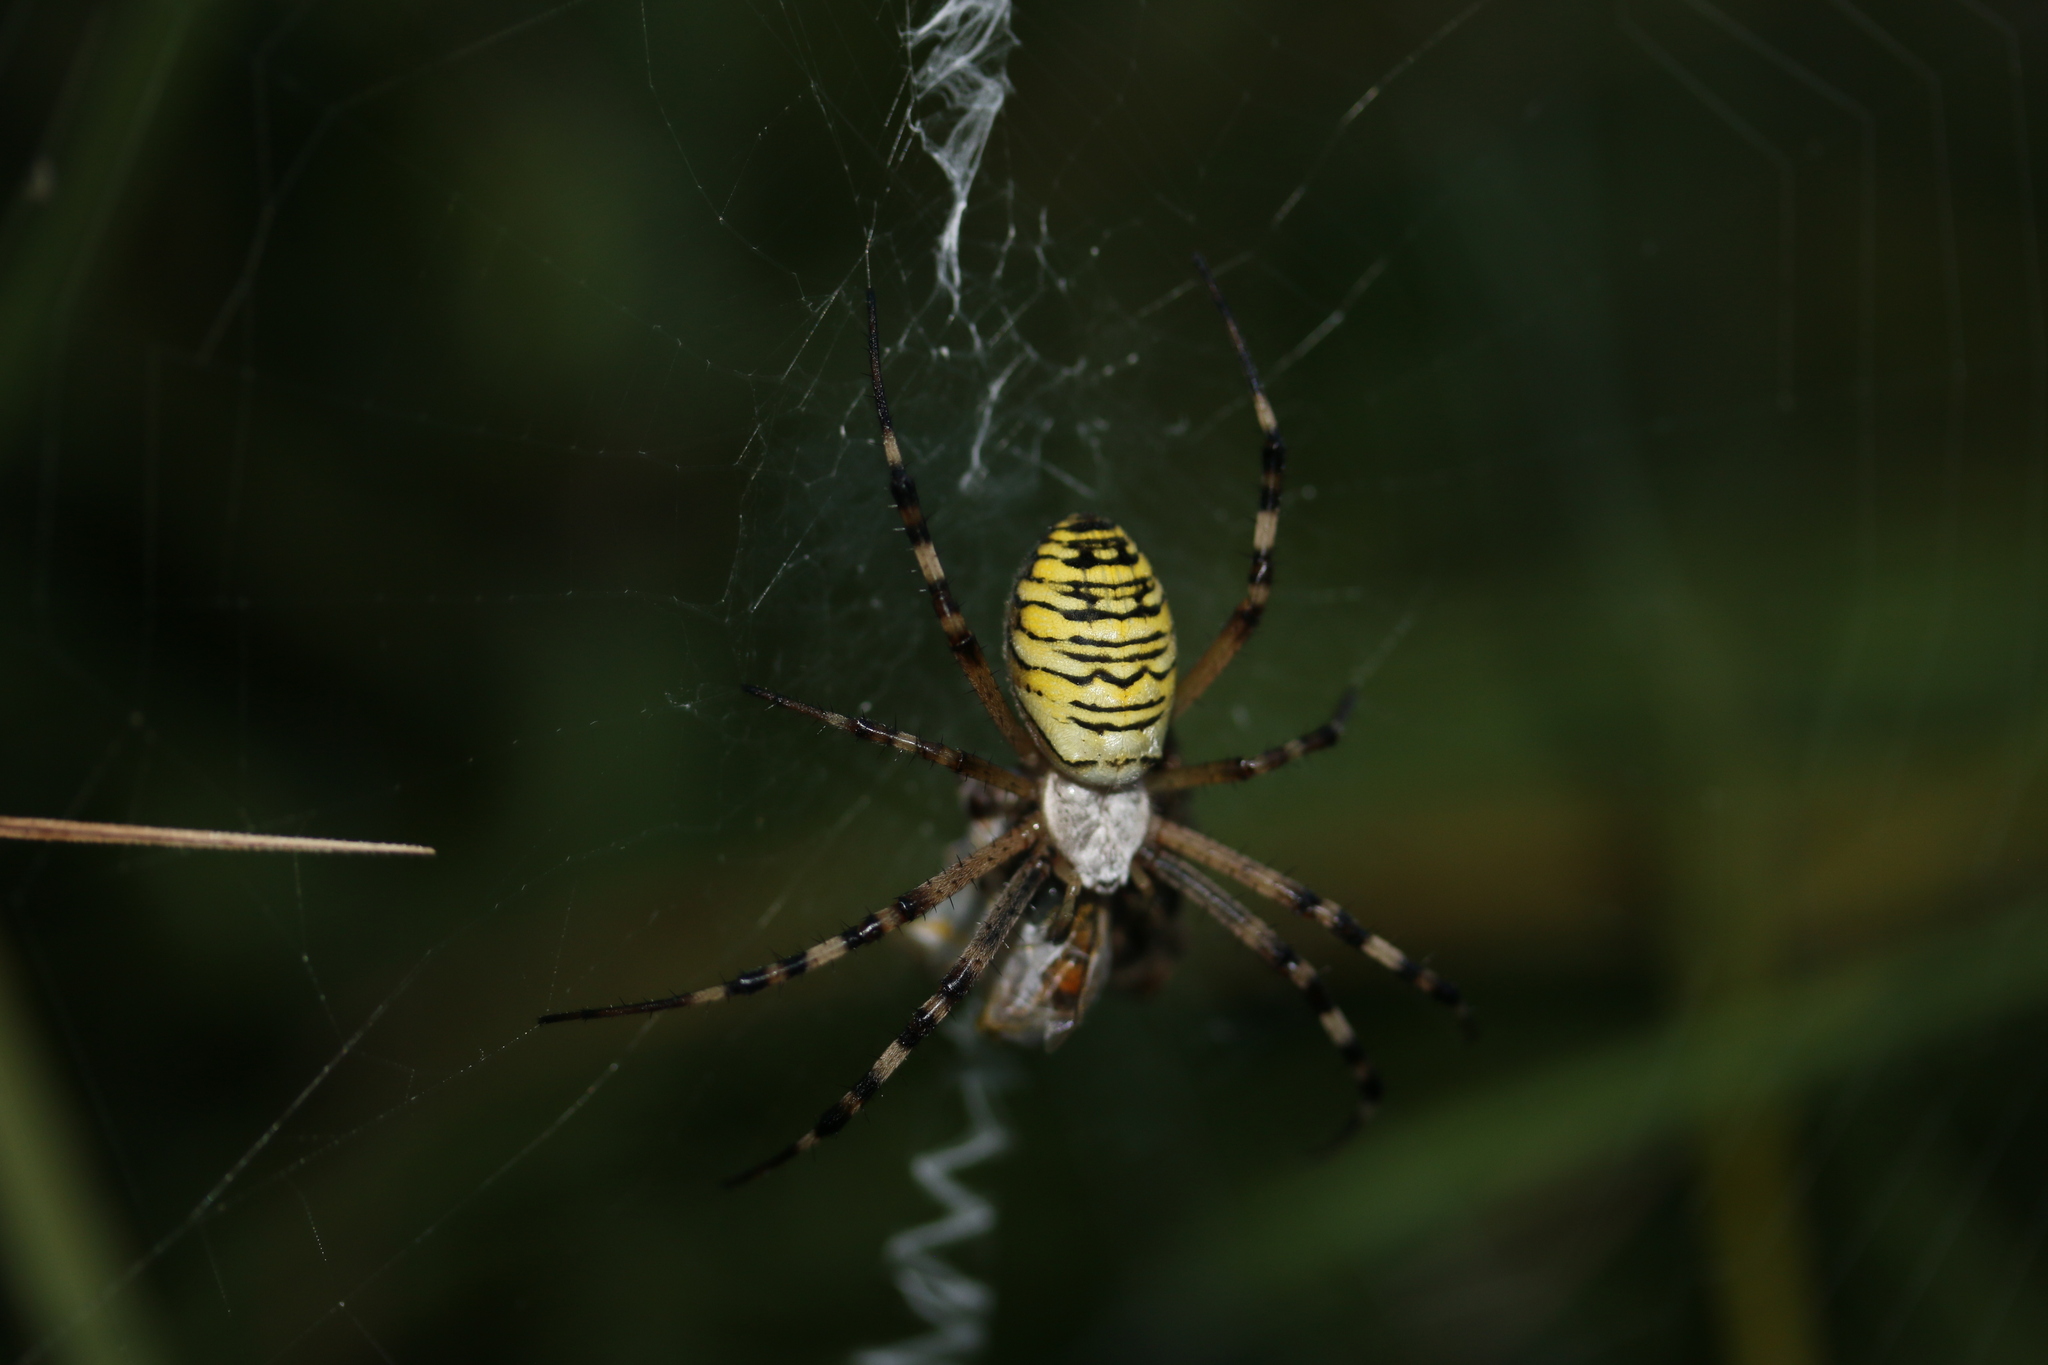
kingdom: Animalia
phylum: Arthropoda
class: Arachnida
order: Araneae
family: Araneidae
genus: Argiope
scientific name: Argiope bruennichi
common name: Wasp spider
